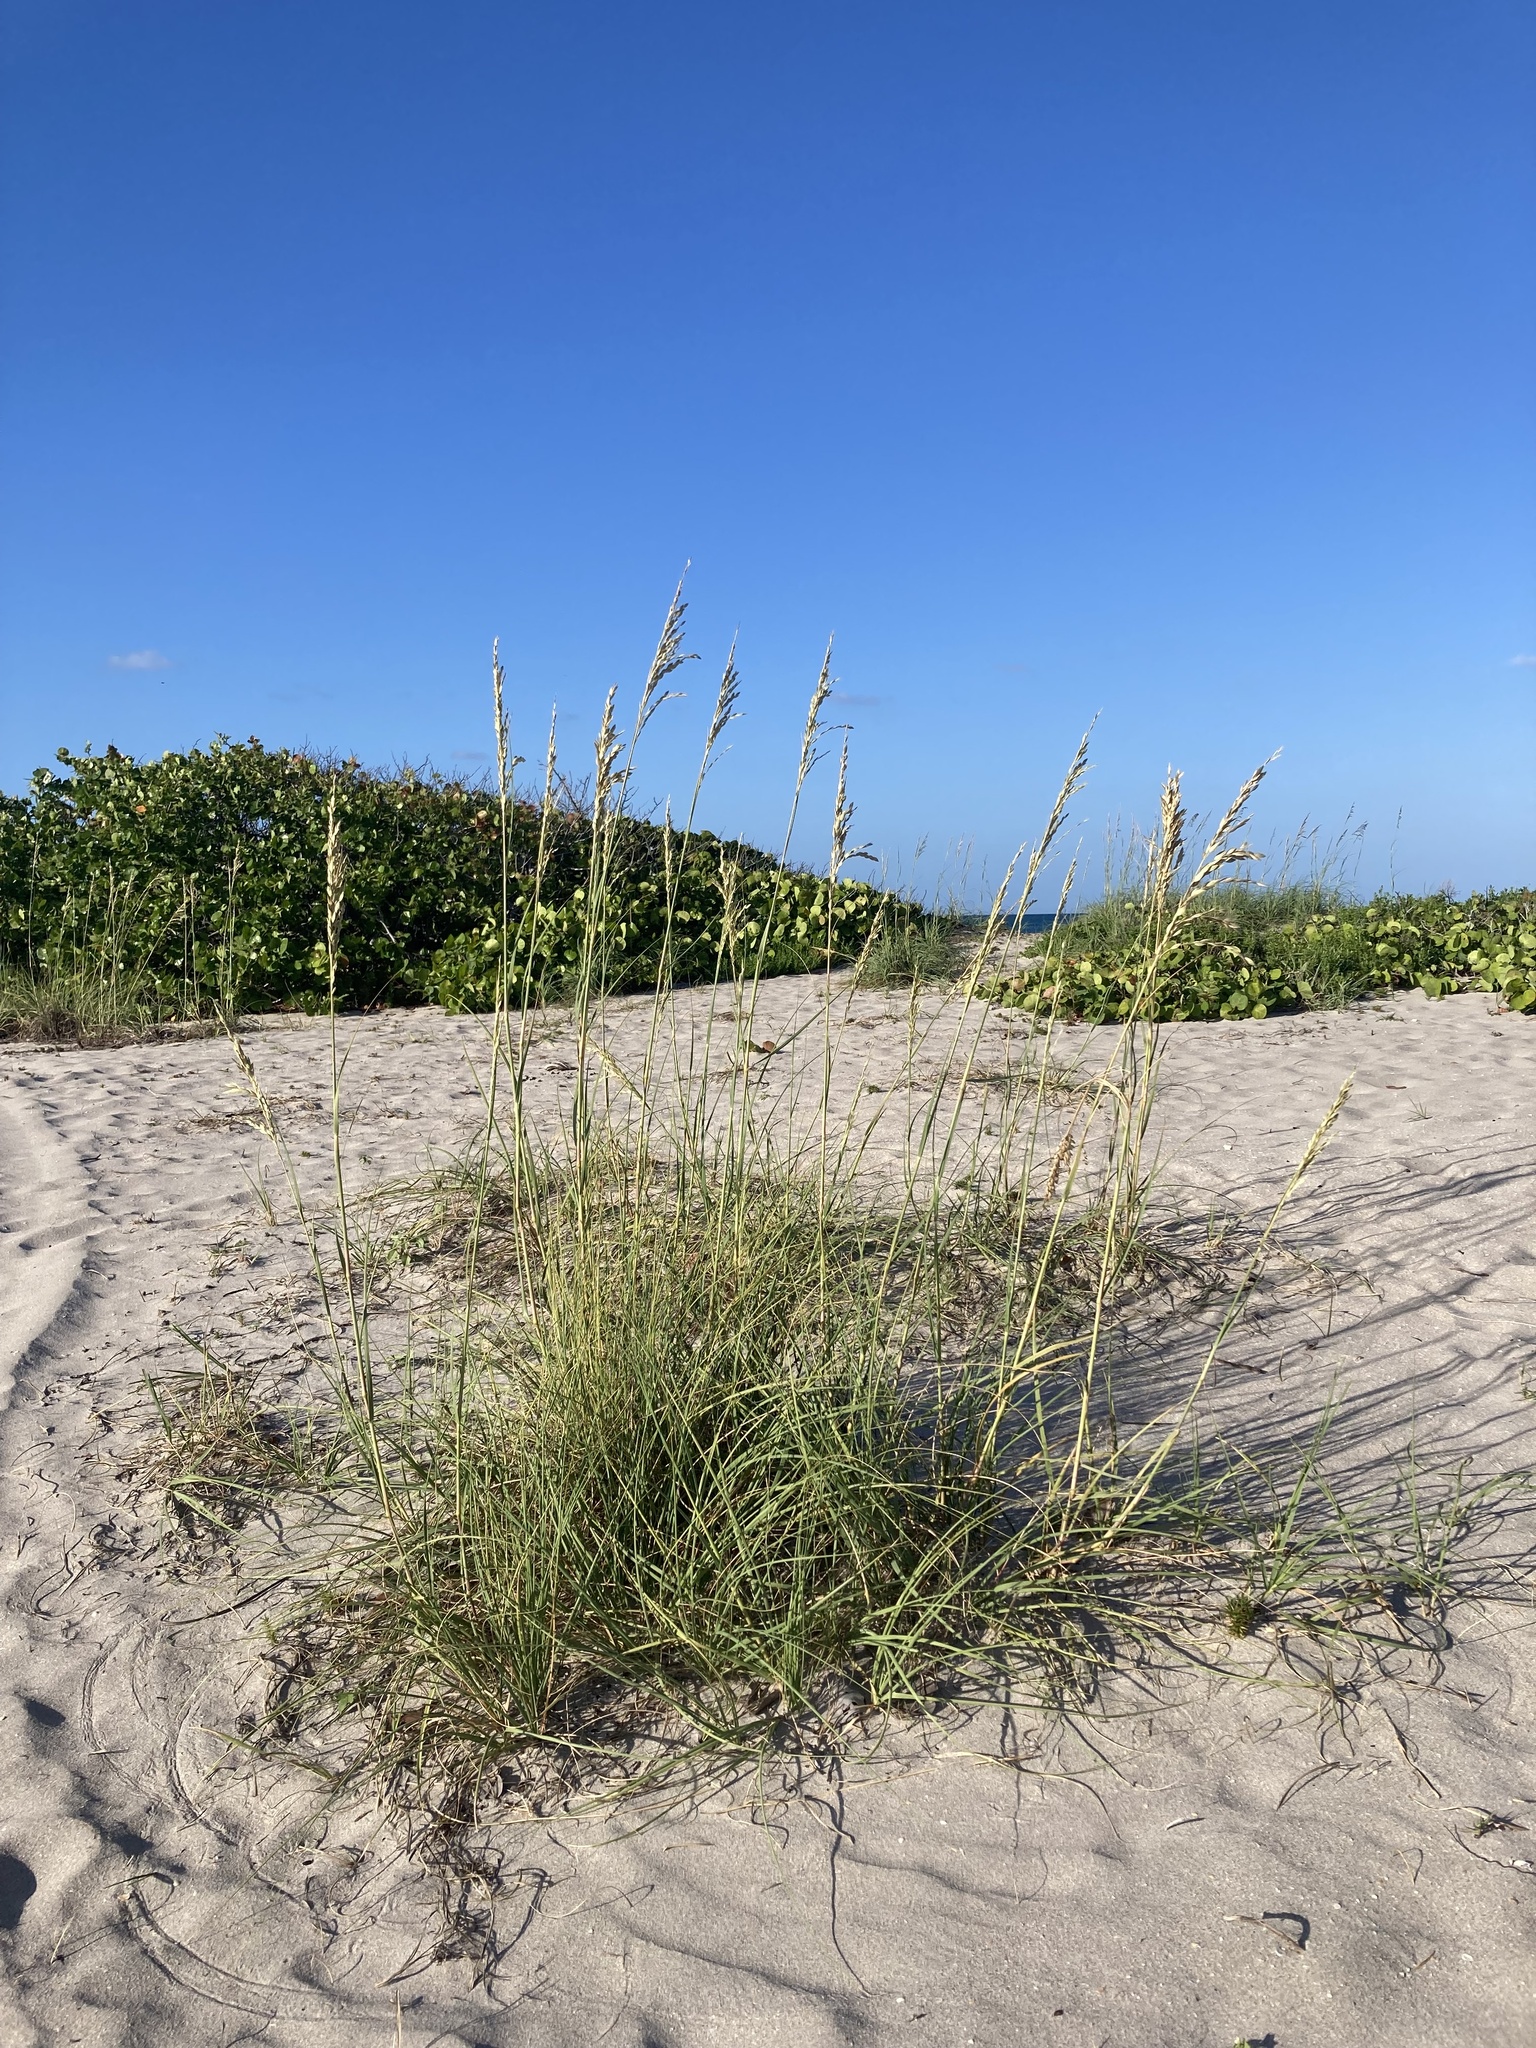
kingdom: Plantae
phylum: Tracheophyta
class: Liliopsida
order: Poales
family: Poaceae
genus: Uniola
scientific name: Uniola paniculata
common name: Seaside-oats
